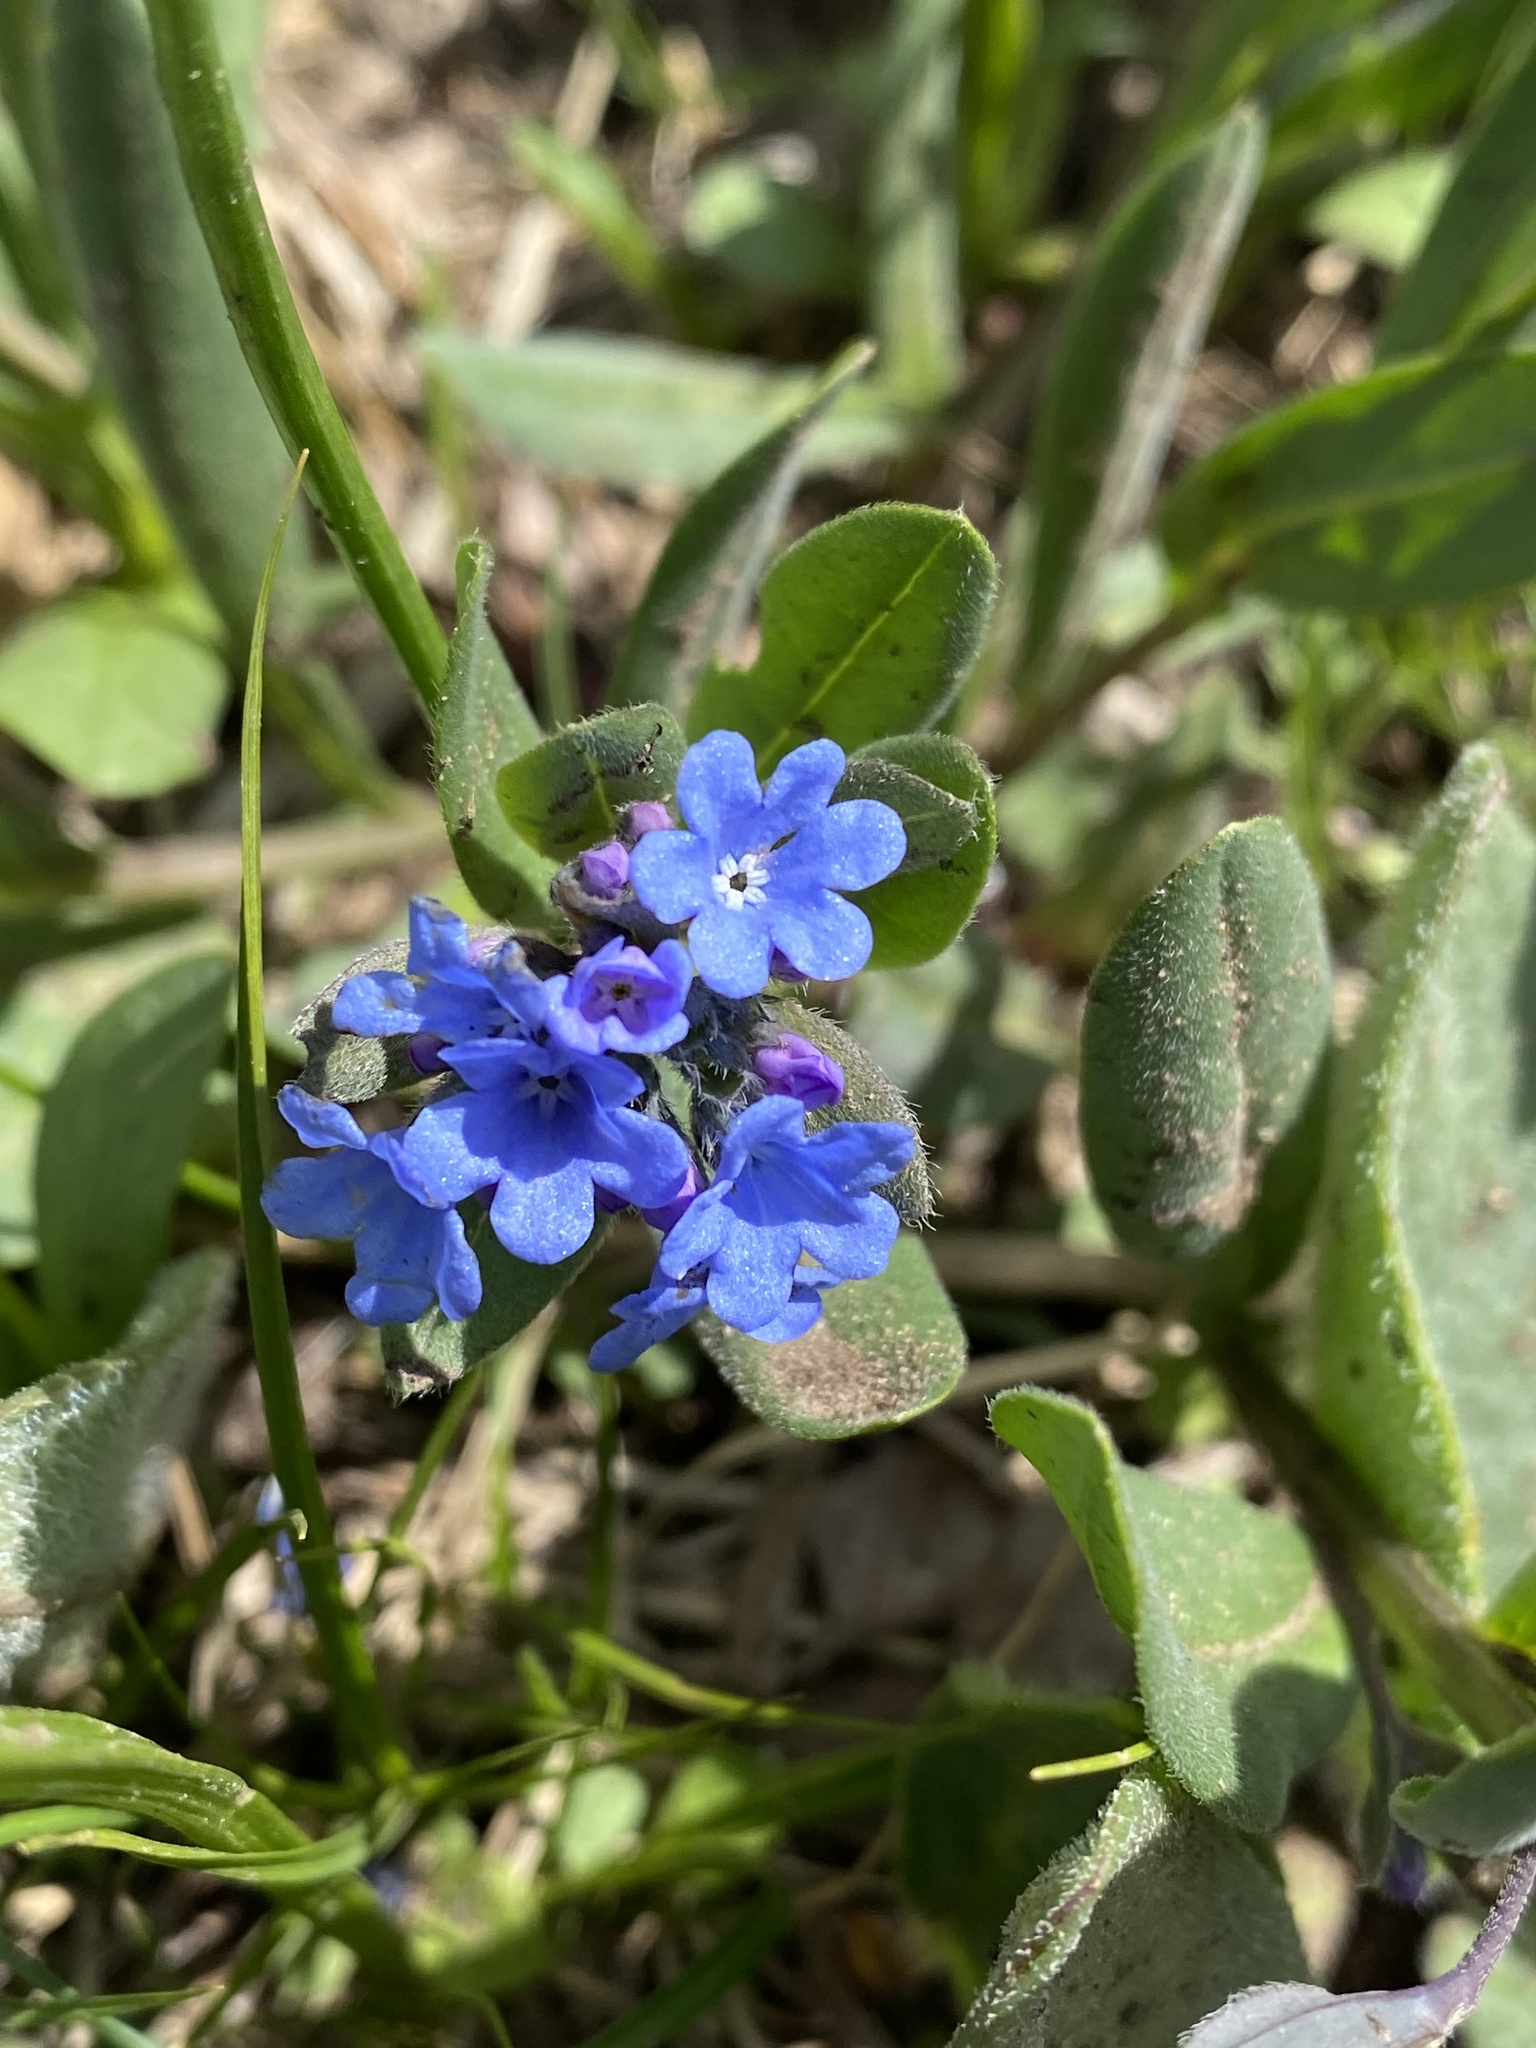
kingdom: Plantae
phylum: Tracheophyta
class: Magnoliopsida
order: Boraginales
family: Boraginaceae
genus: Mertensia
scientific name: Mertensia brevistyla
